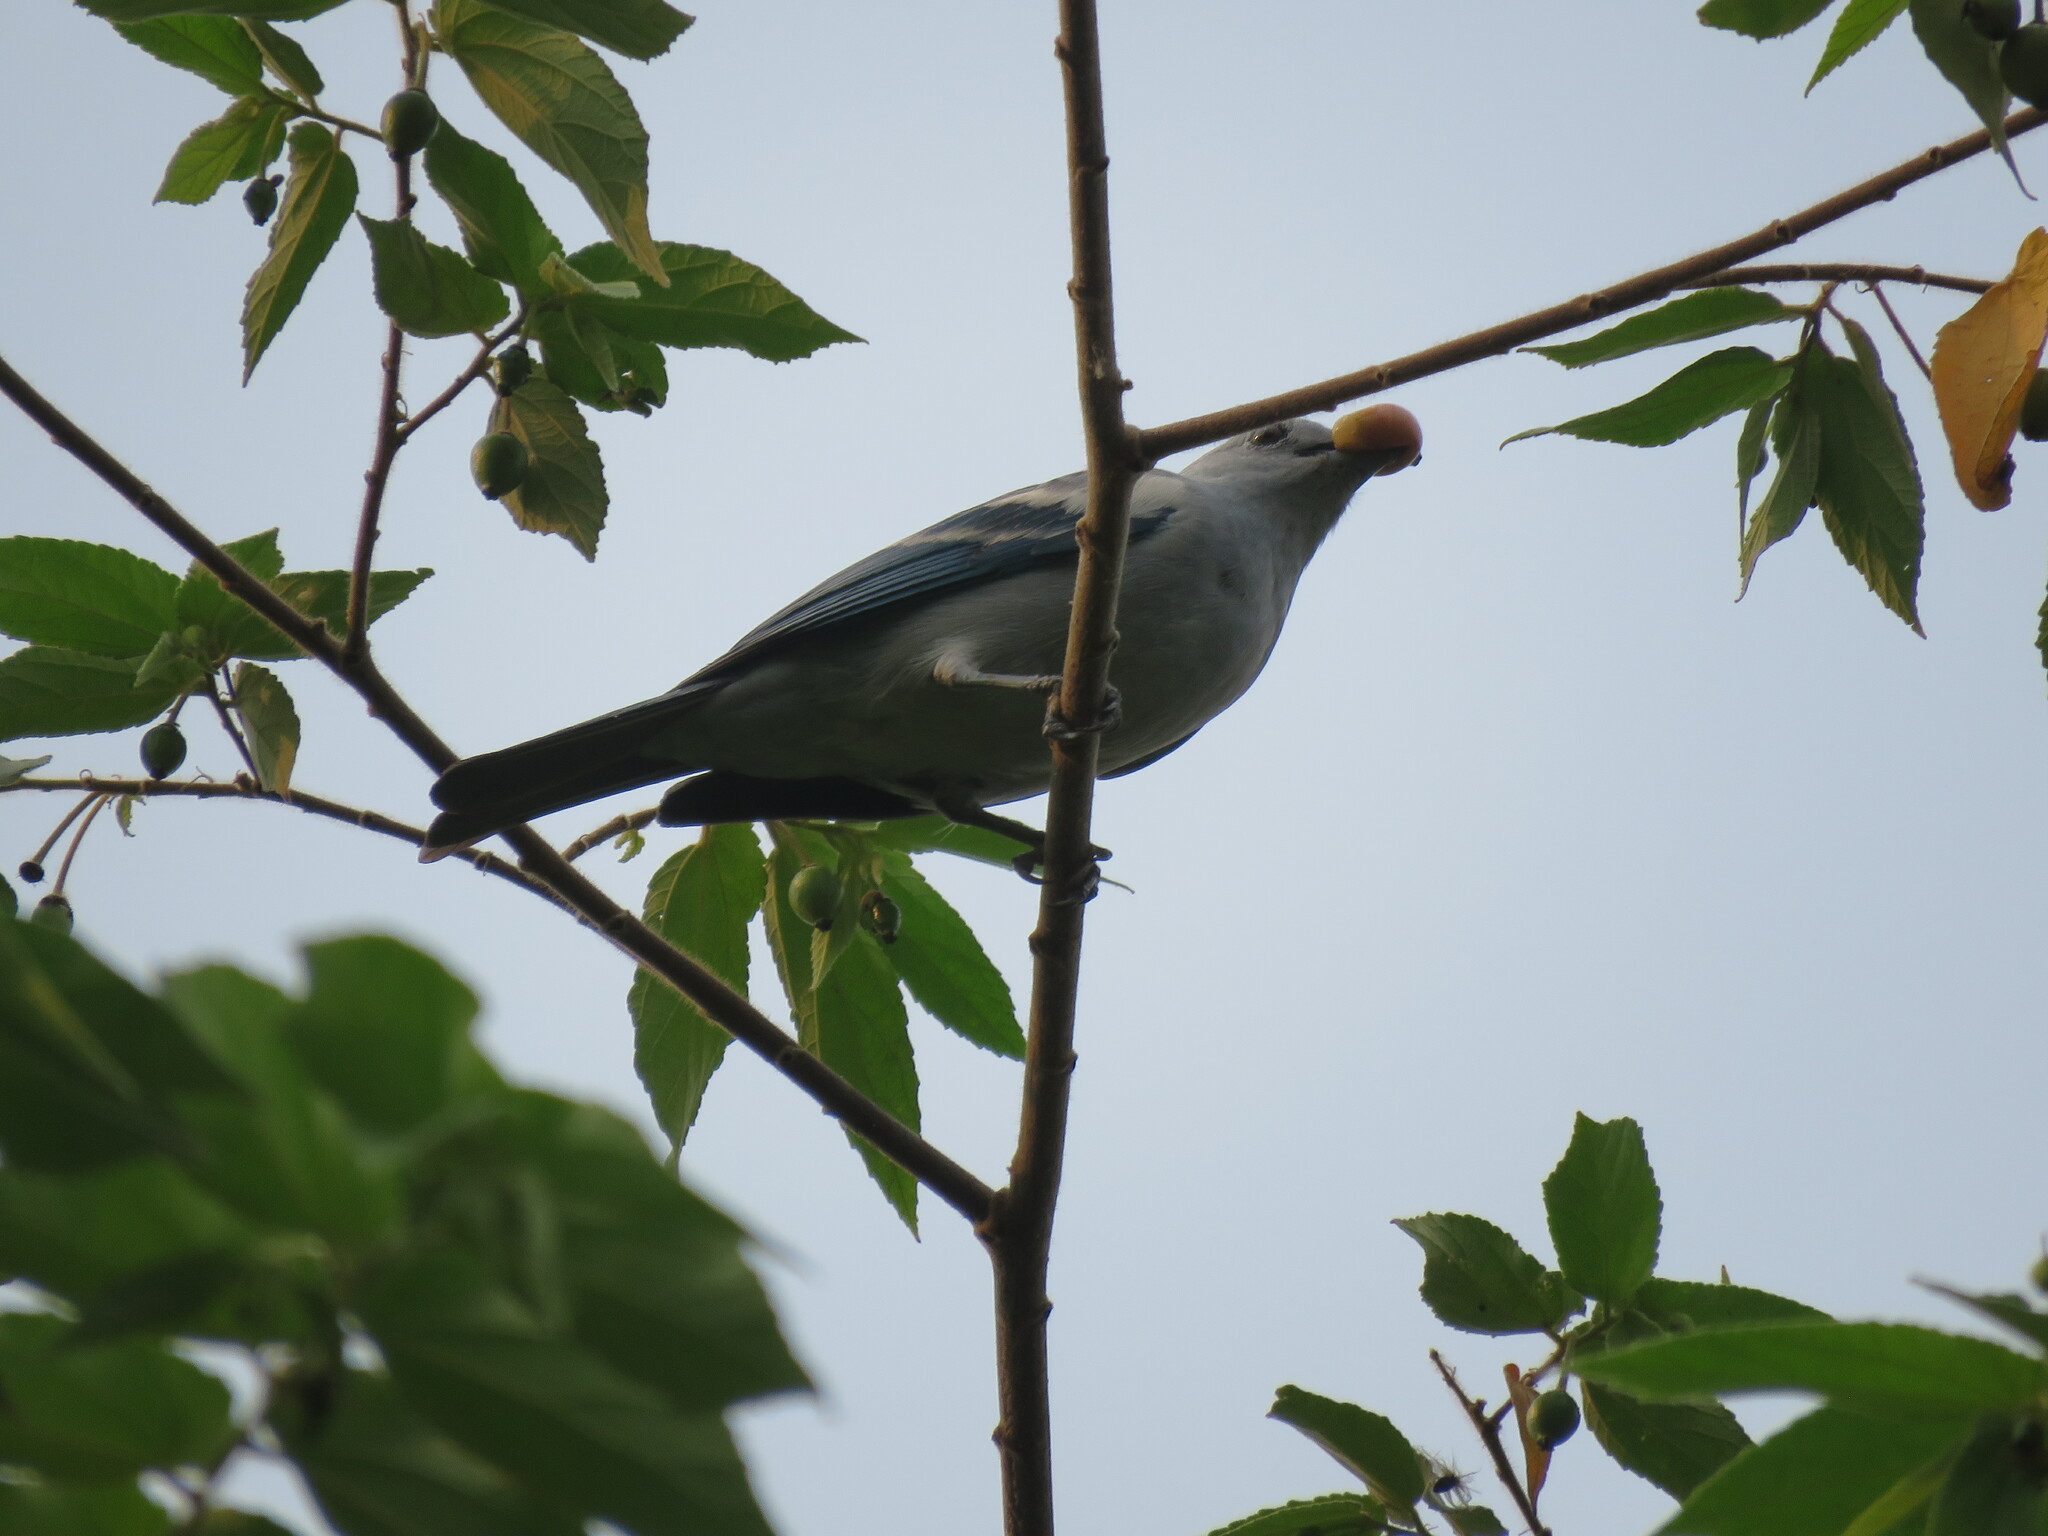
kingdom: Animalia
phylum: Chordata
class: Aves
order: Passeriformes
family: Thraupidae
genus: Thraupis
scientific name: Thraupis episcopus
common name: Blue-grey tanager
